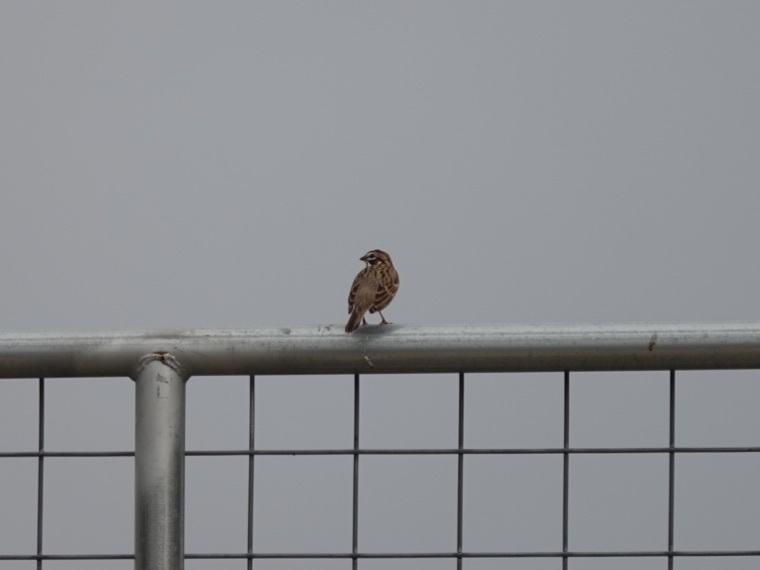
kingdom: Animalia
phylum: Chordata
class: Aves
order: Passeriformes
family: Passerellidae
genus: Chondestes
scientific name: Chondestes grammacus
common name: Lark sparrow
